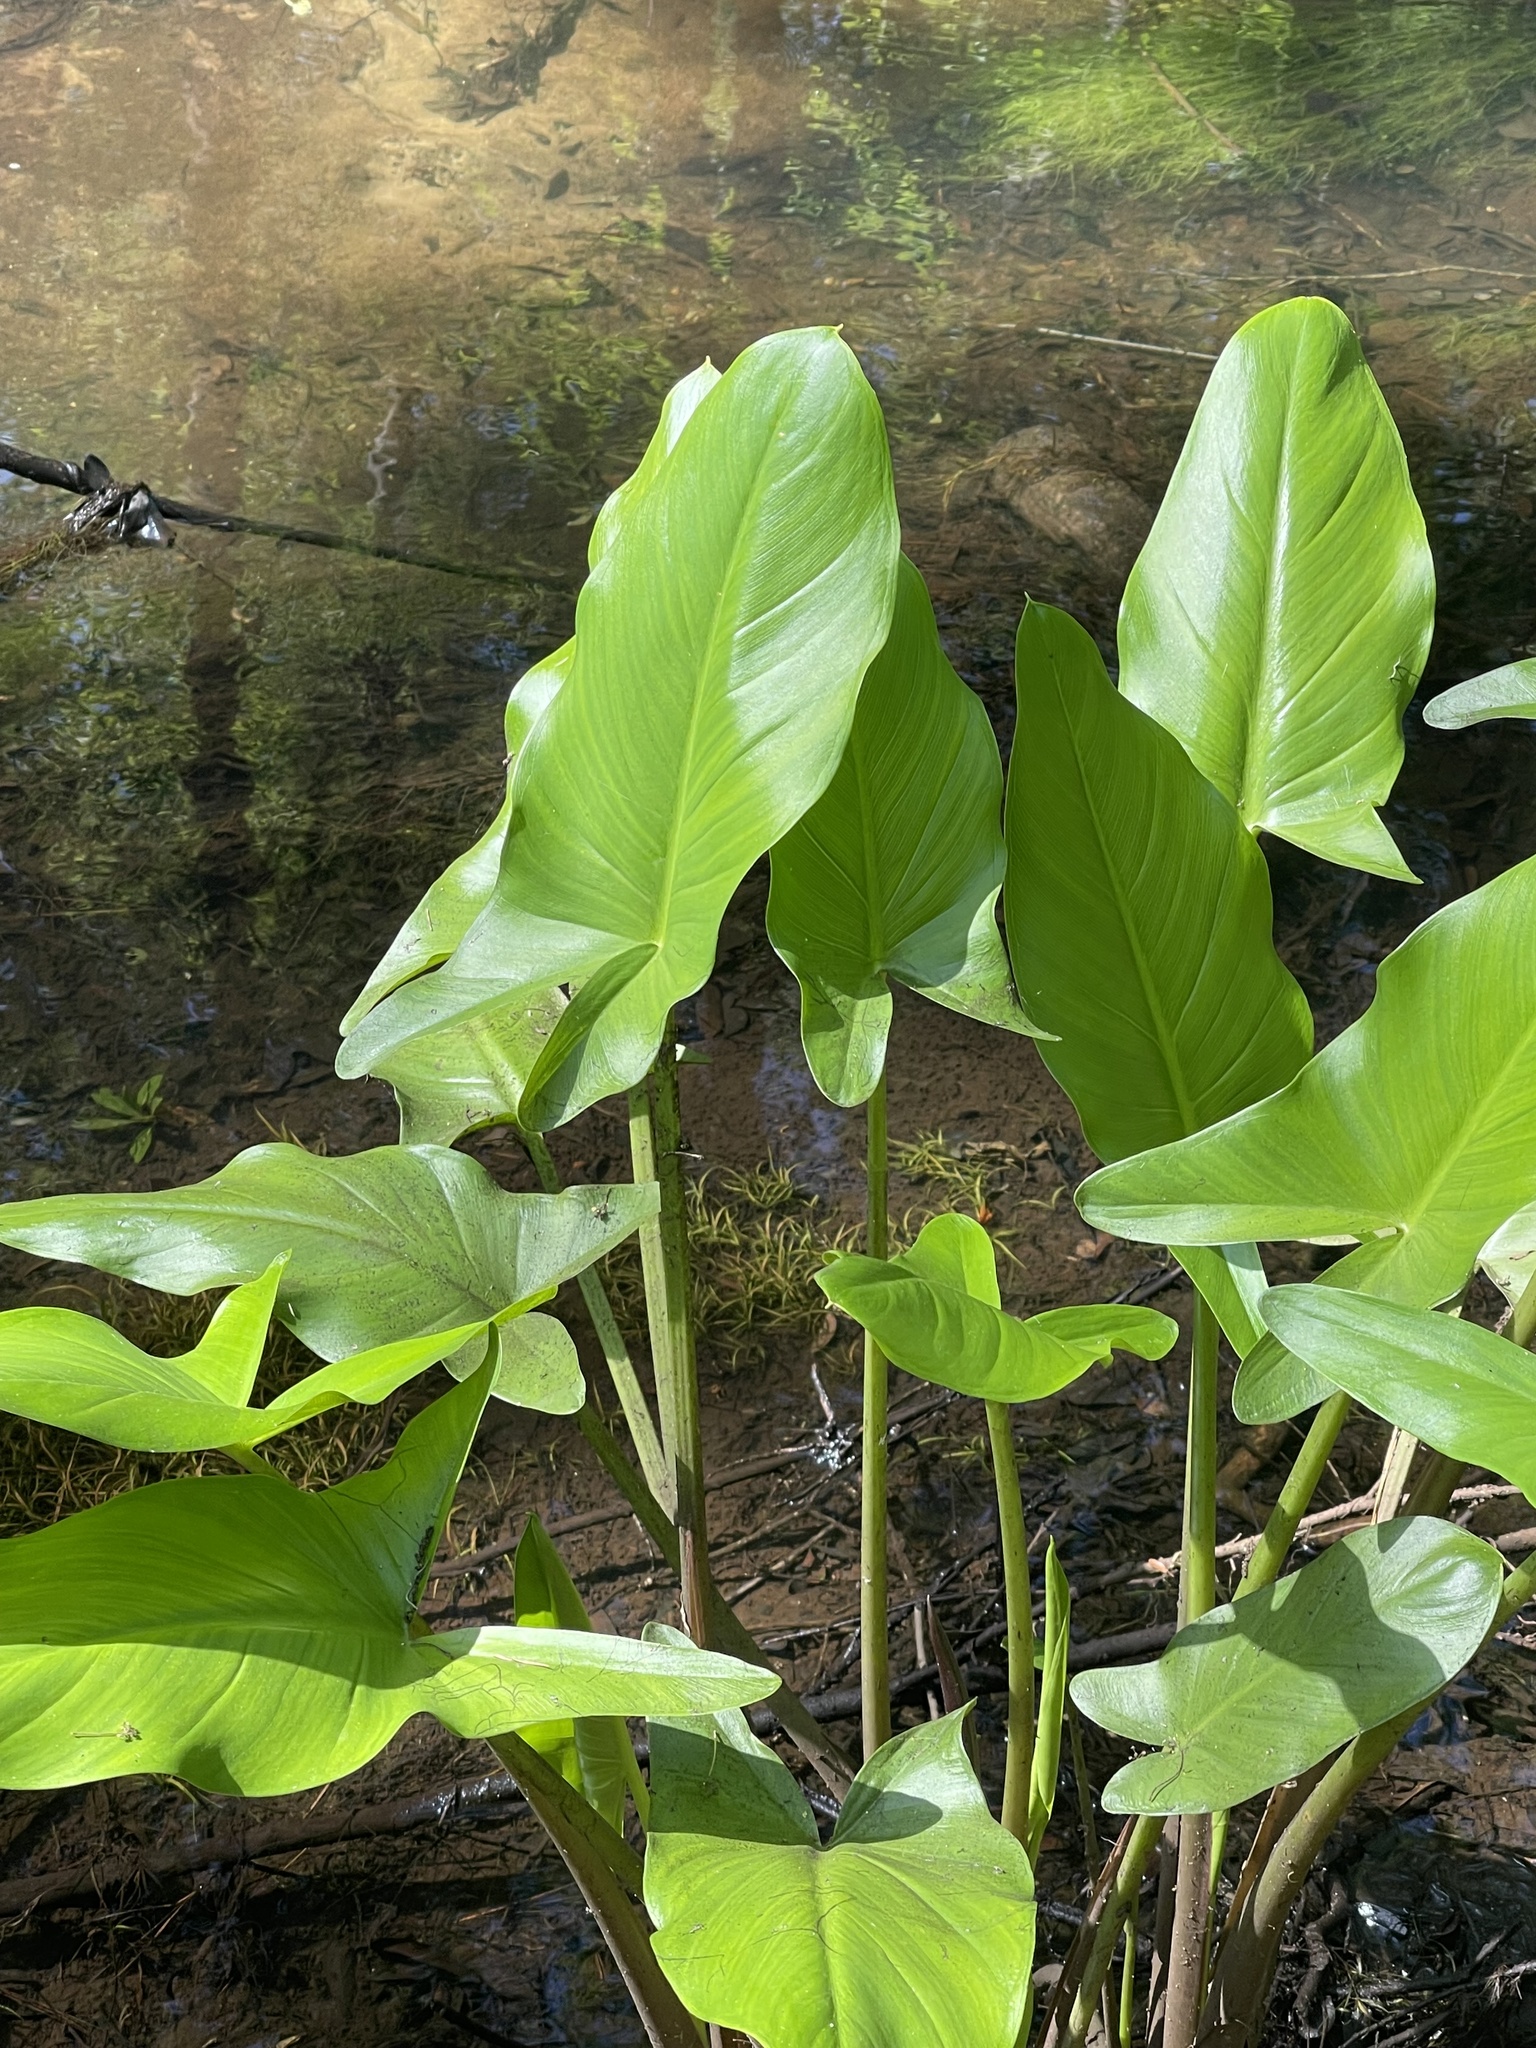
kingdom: Plantae
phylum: Tracheophyta
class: Liliopsida
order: Alismatales
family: Araceae
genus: Peltandra
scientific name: Peltandra virginica
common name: Arrow arum
